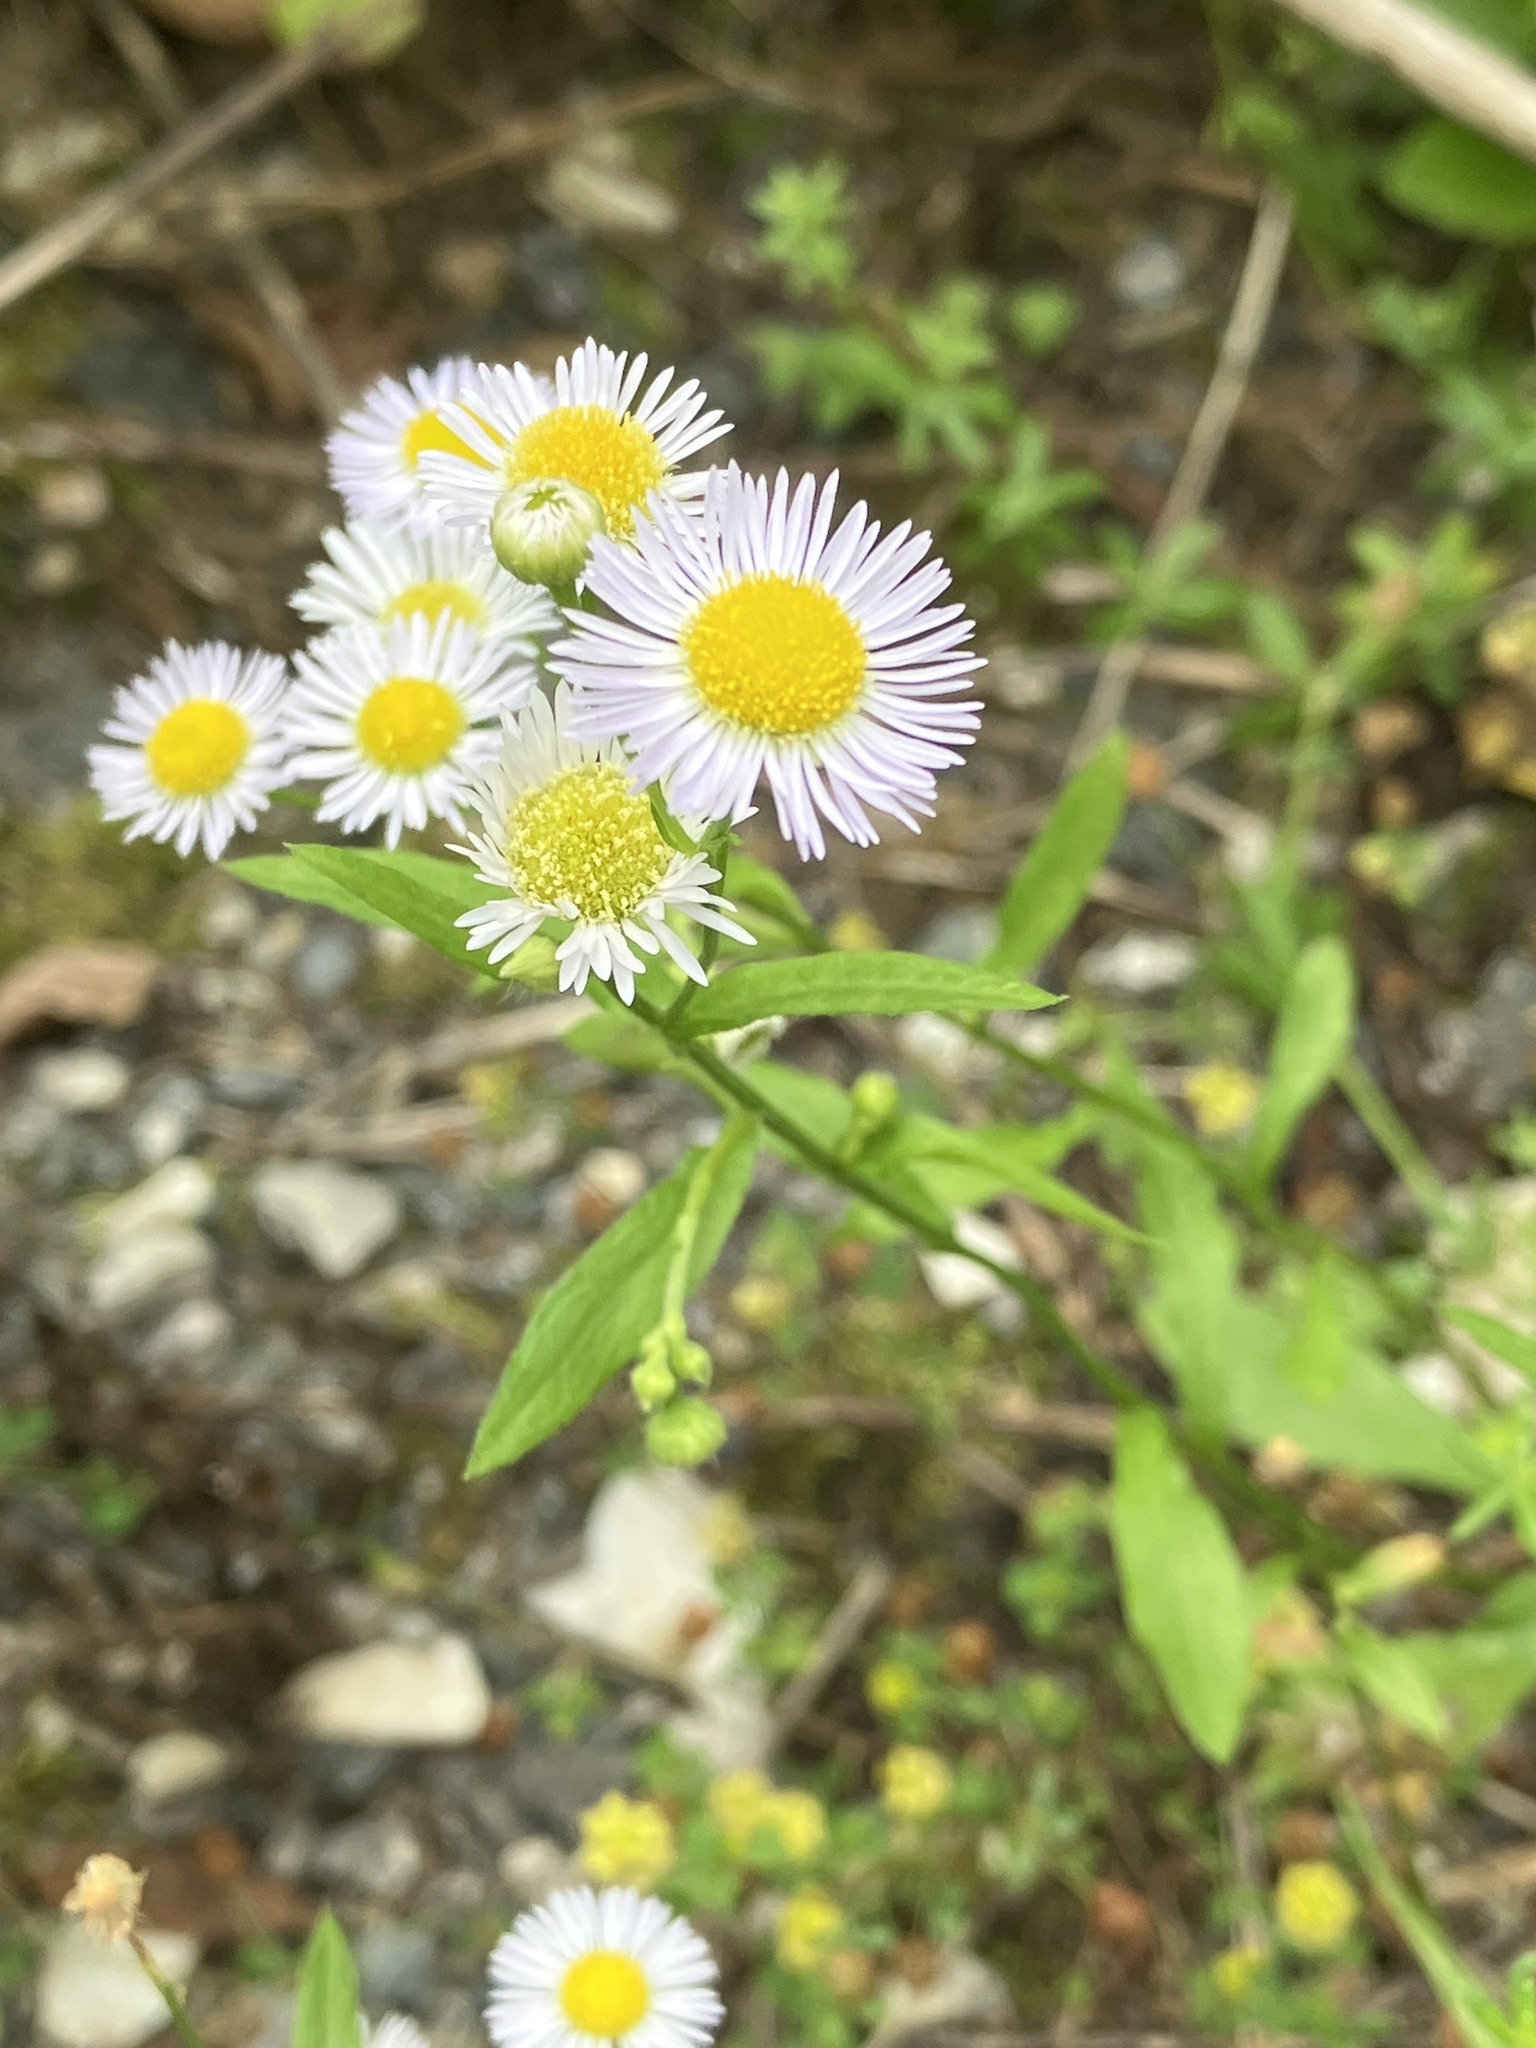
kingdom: Plantae
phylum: Tracheophyta
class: Magnoliopsida
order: Asterales
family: Asteraceae
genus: Erigeron
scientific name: Erigeron annuus
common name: Tall fleabane
